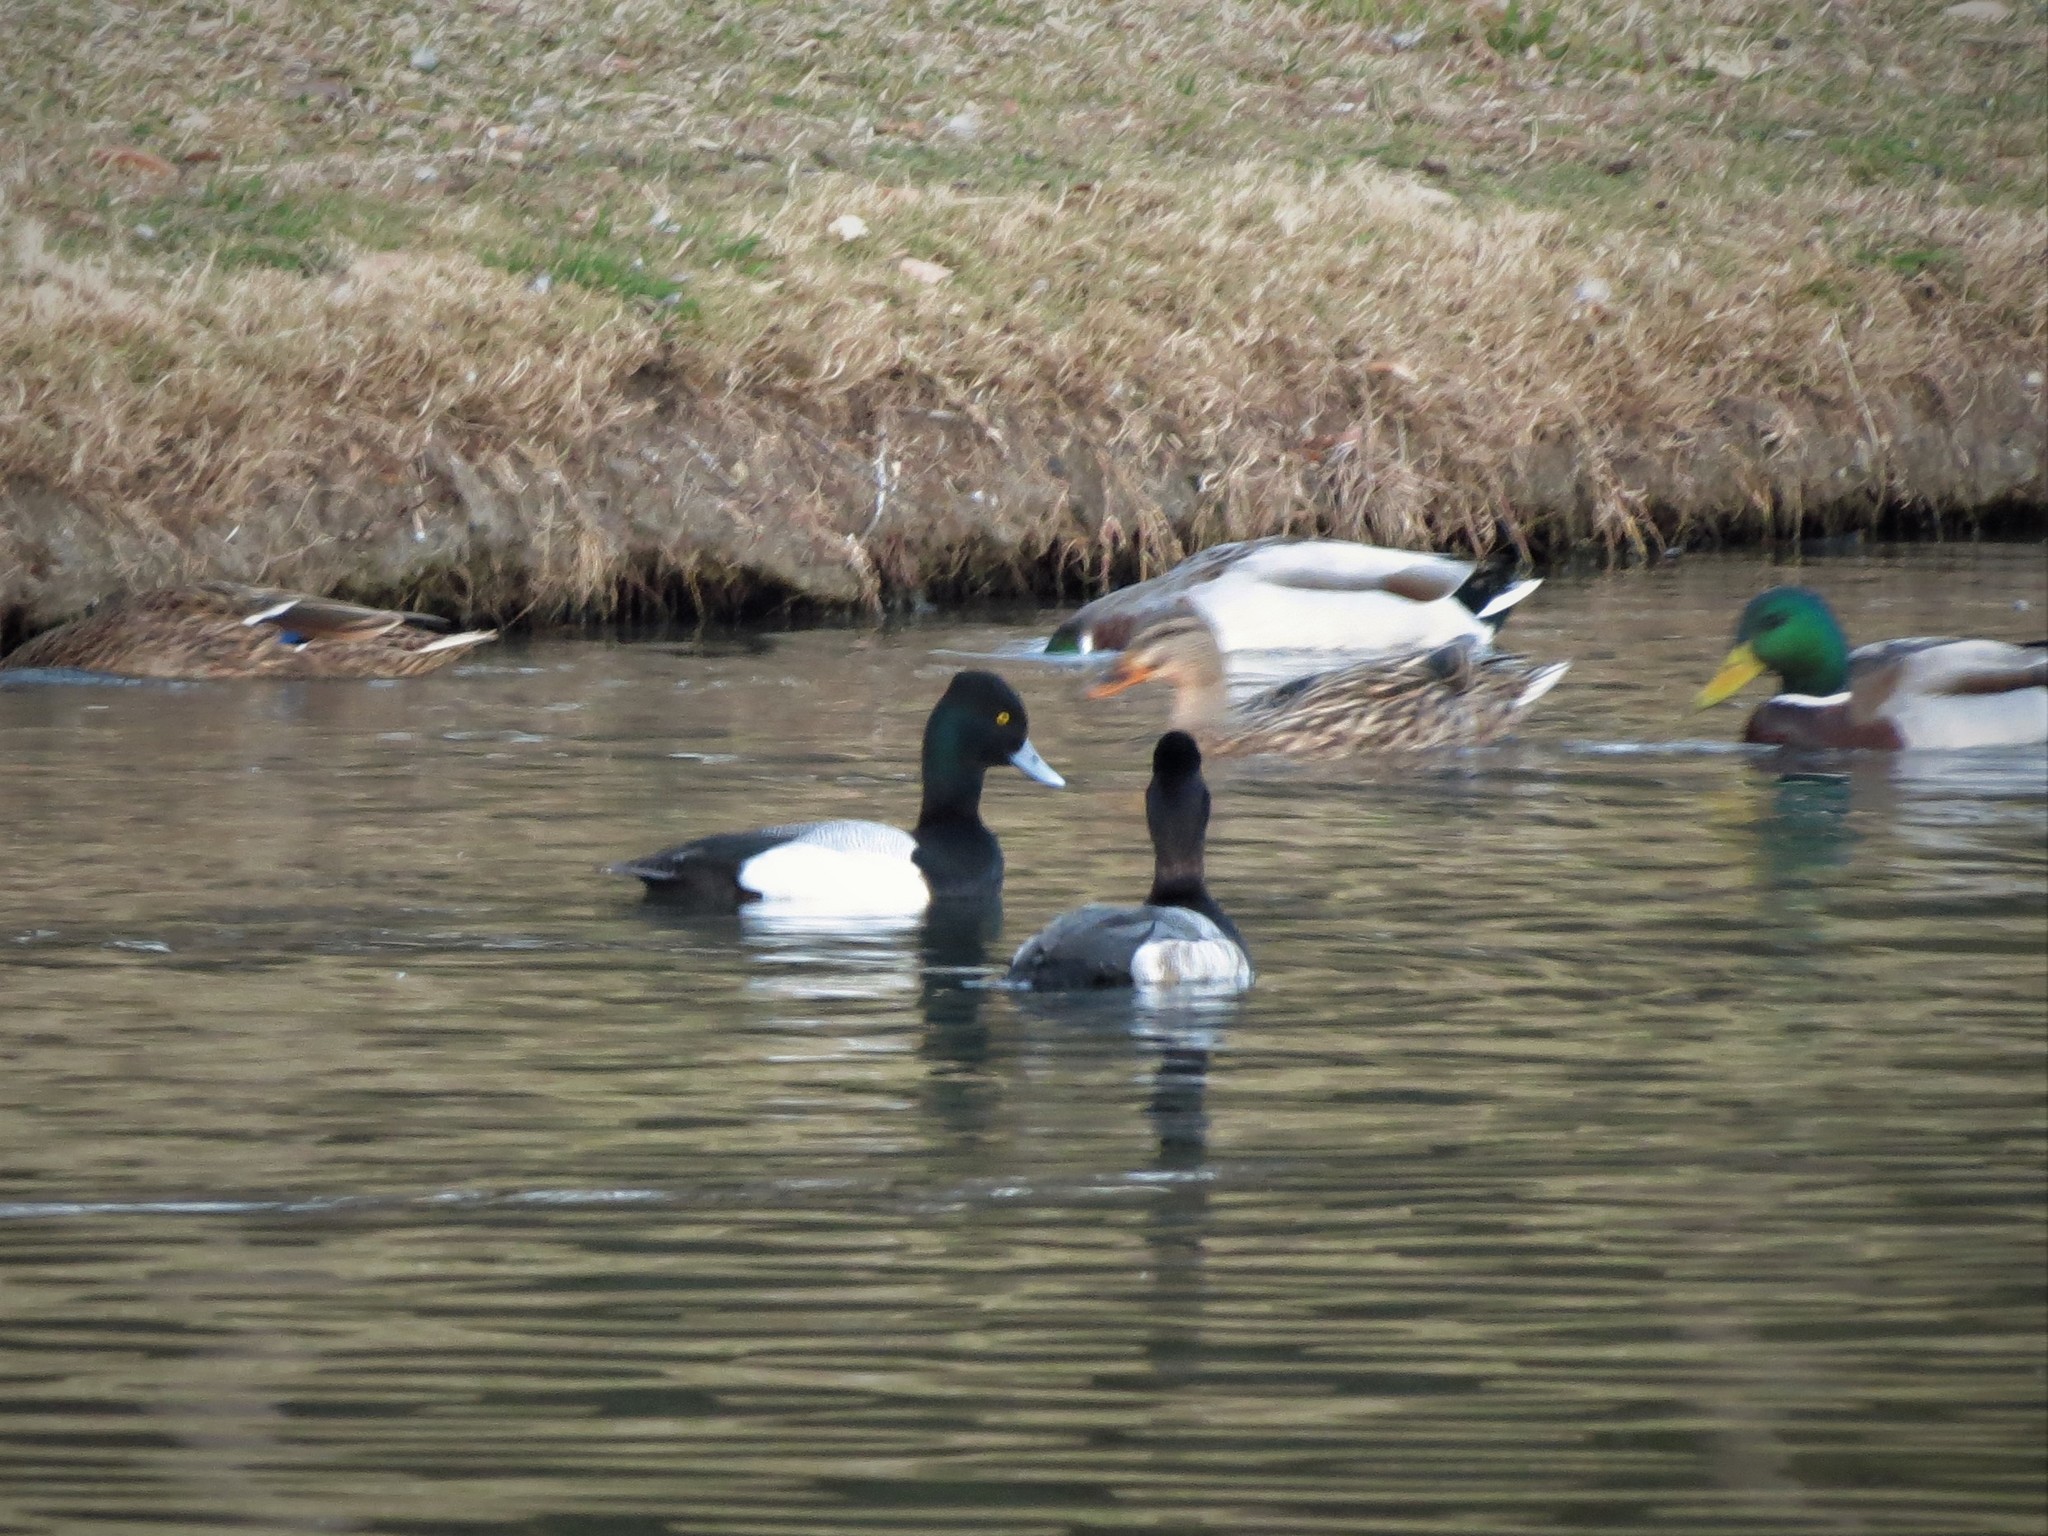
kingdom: Animalia
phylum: Chordata
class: Aves
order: Anseriformes
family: Anatidae
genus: Aythya
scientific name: Aythya affinis
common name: Lesser scaup
